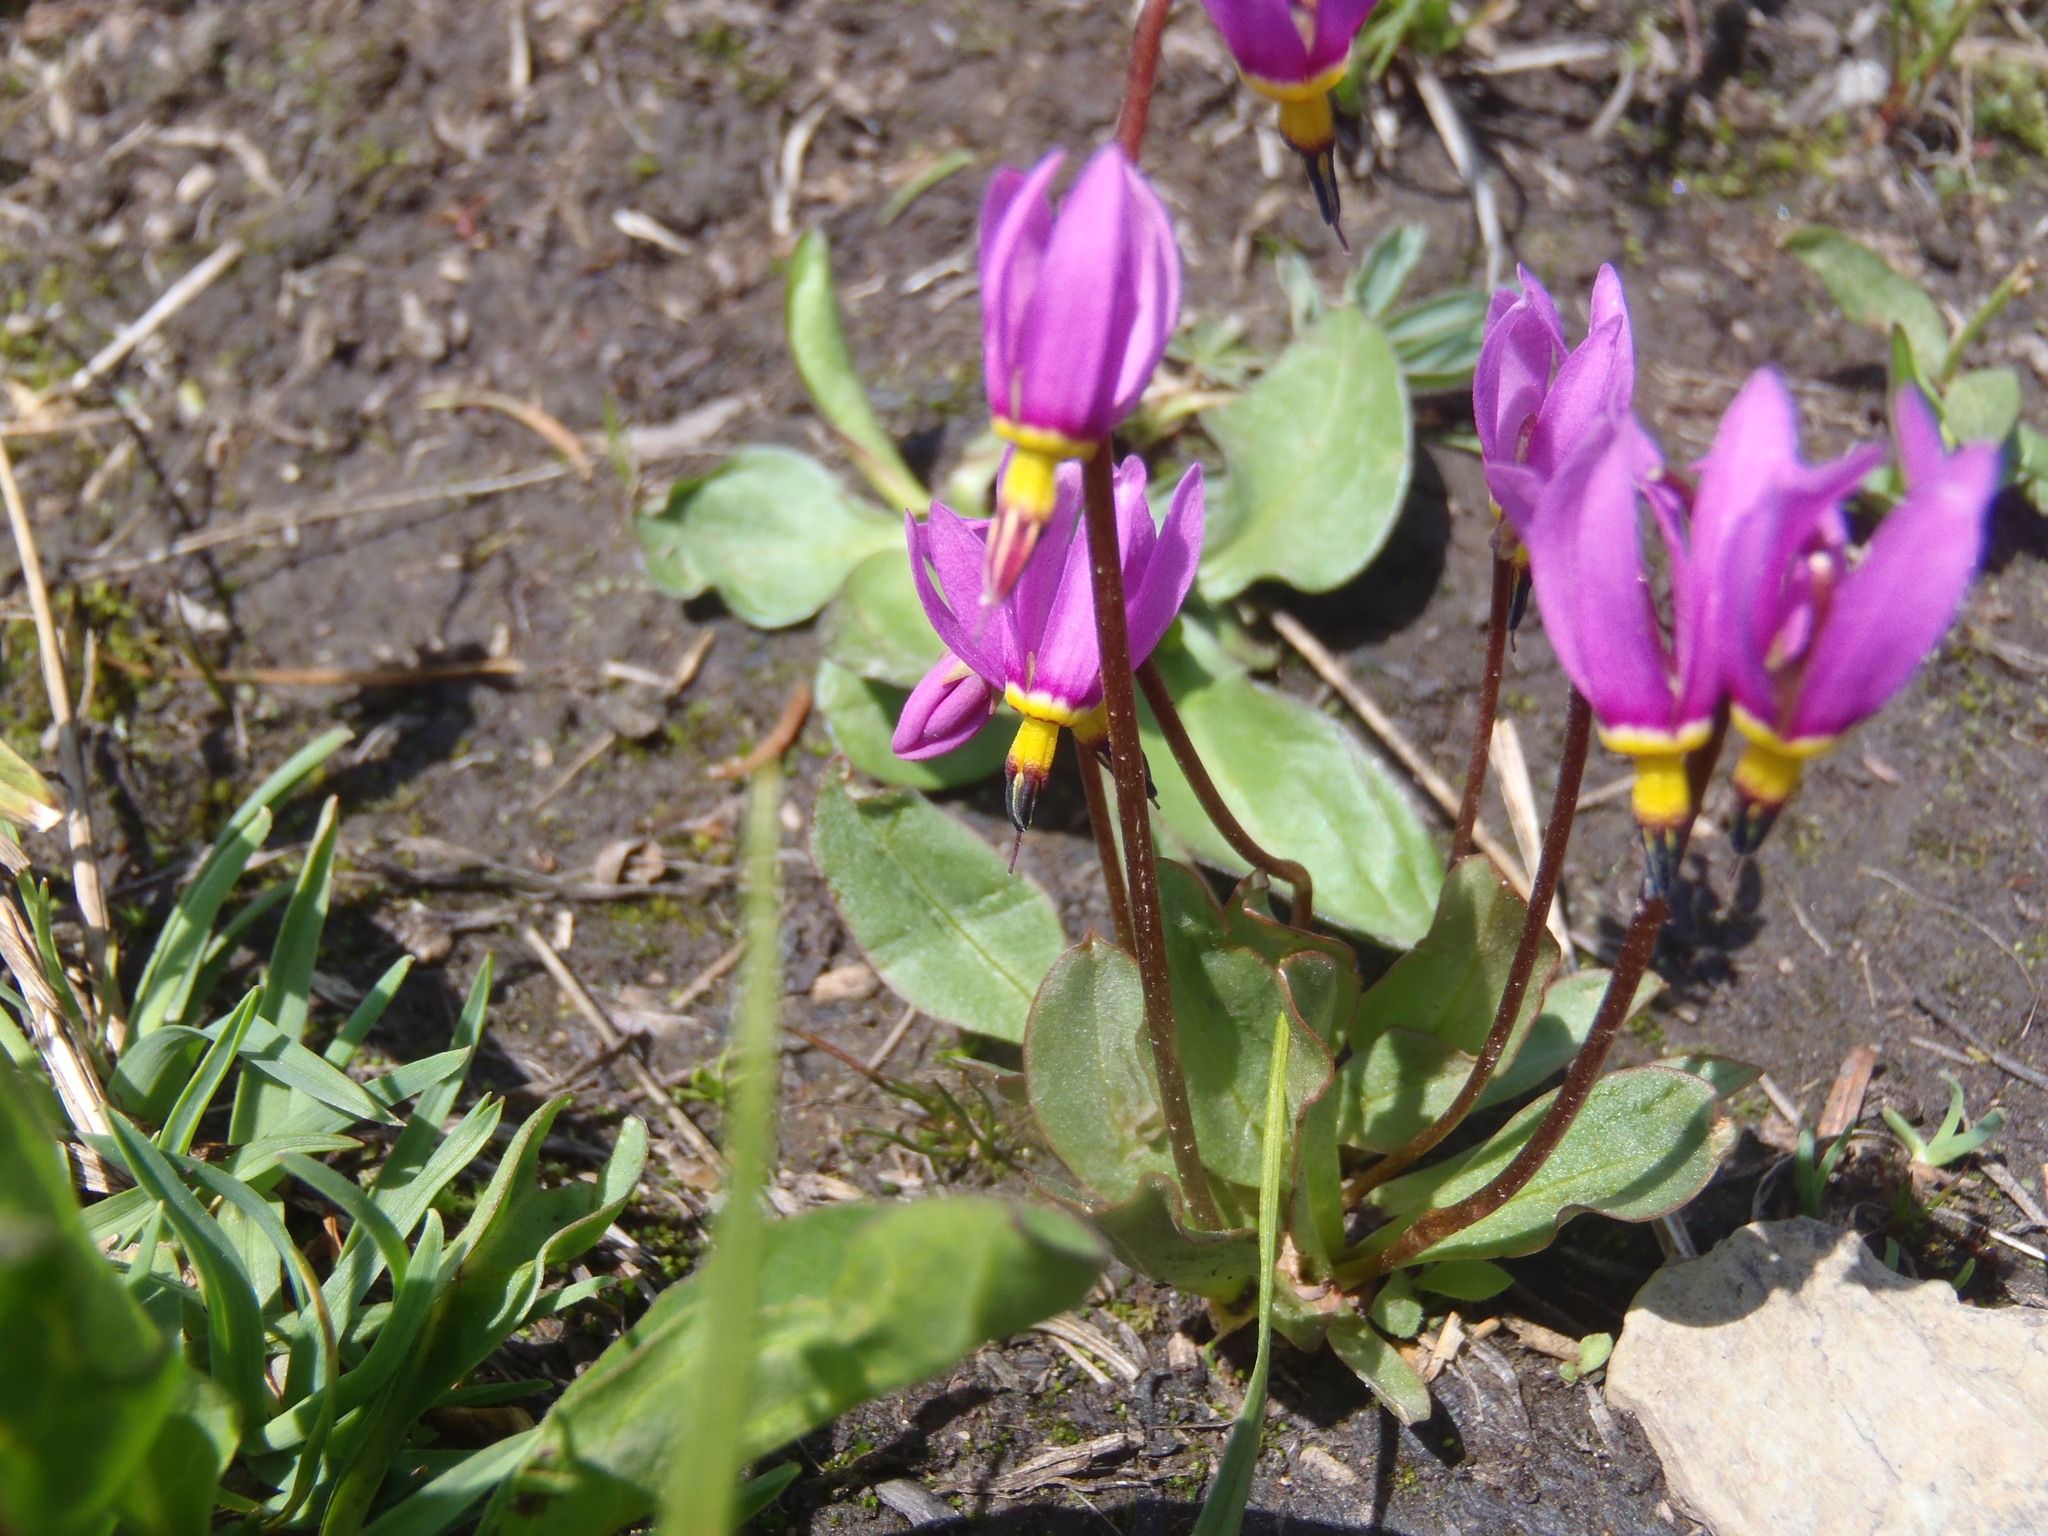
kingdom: Plantae
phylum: Tracheophyta
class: Magnoliopsida
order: Ericales
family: Primulaceae
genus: Dodecatheon
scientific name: Dodecatheon pulchellum
